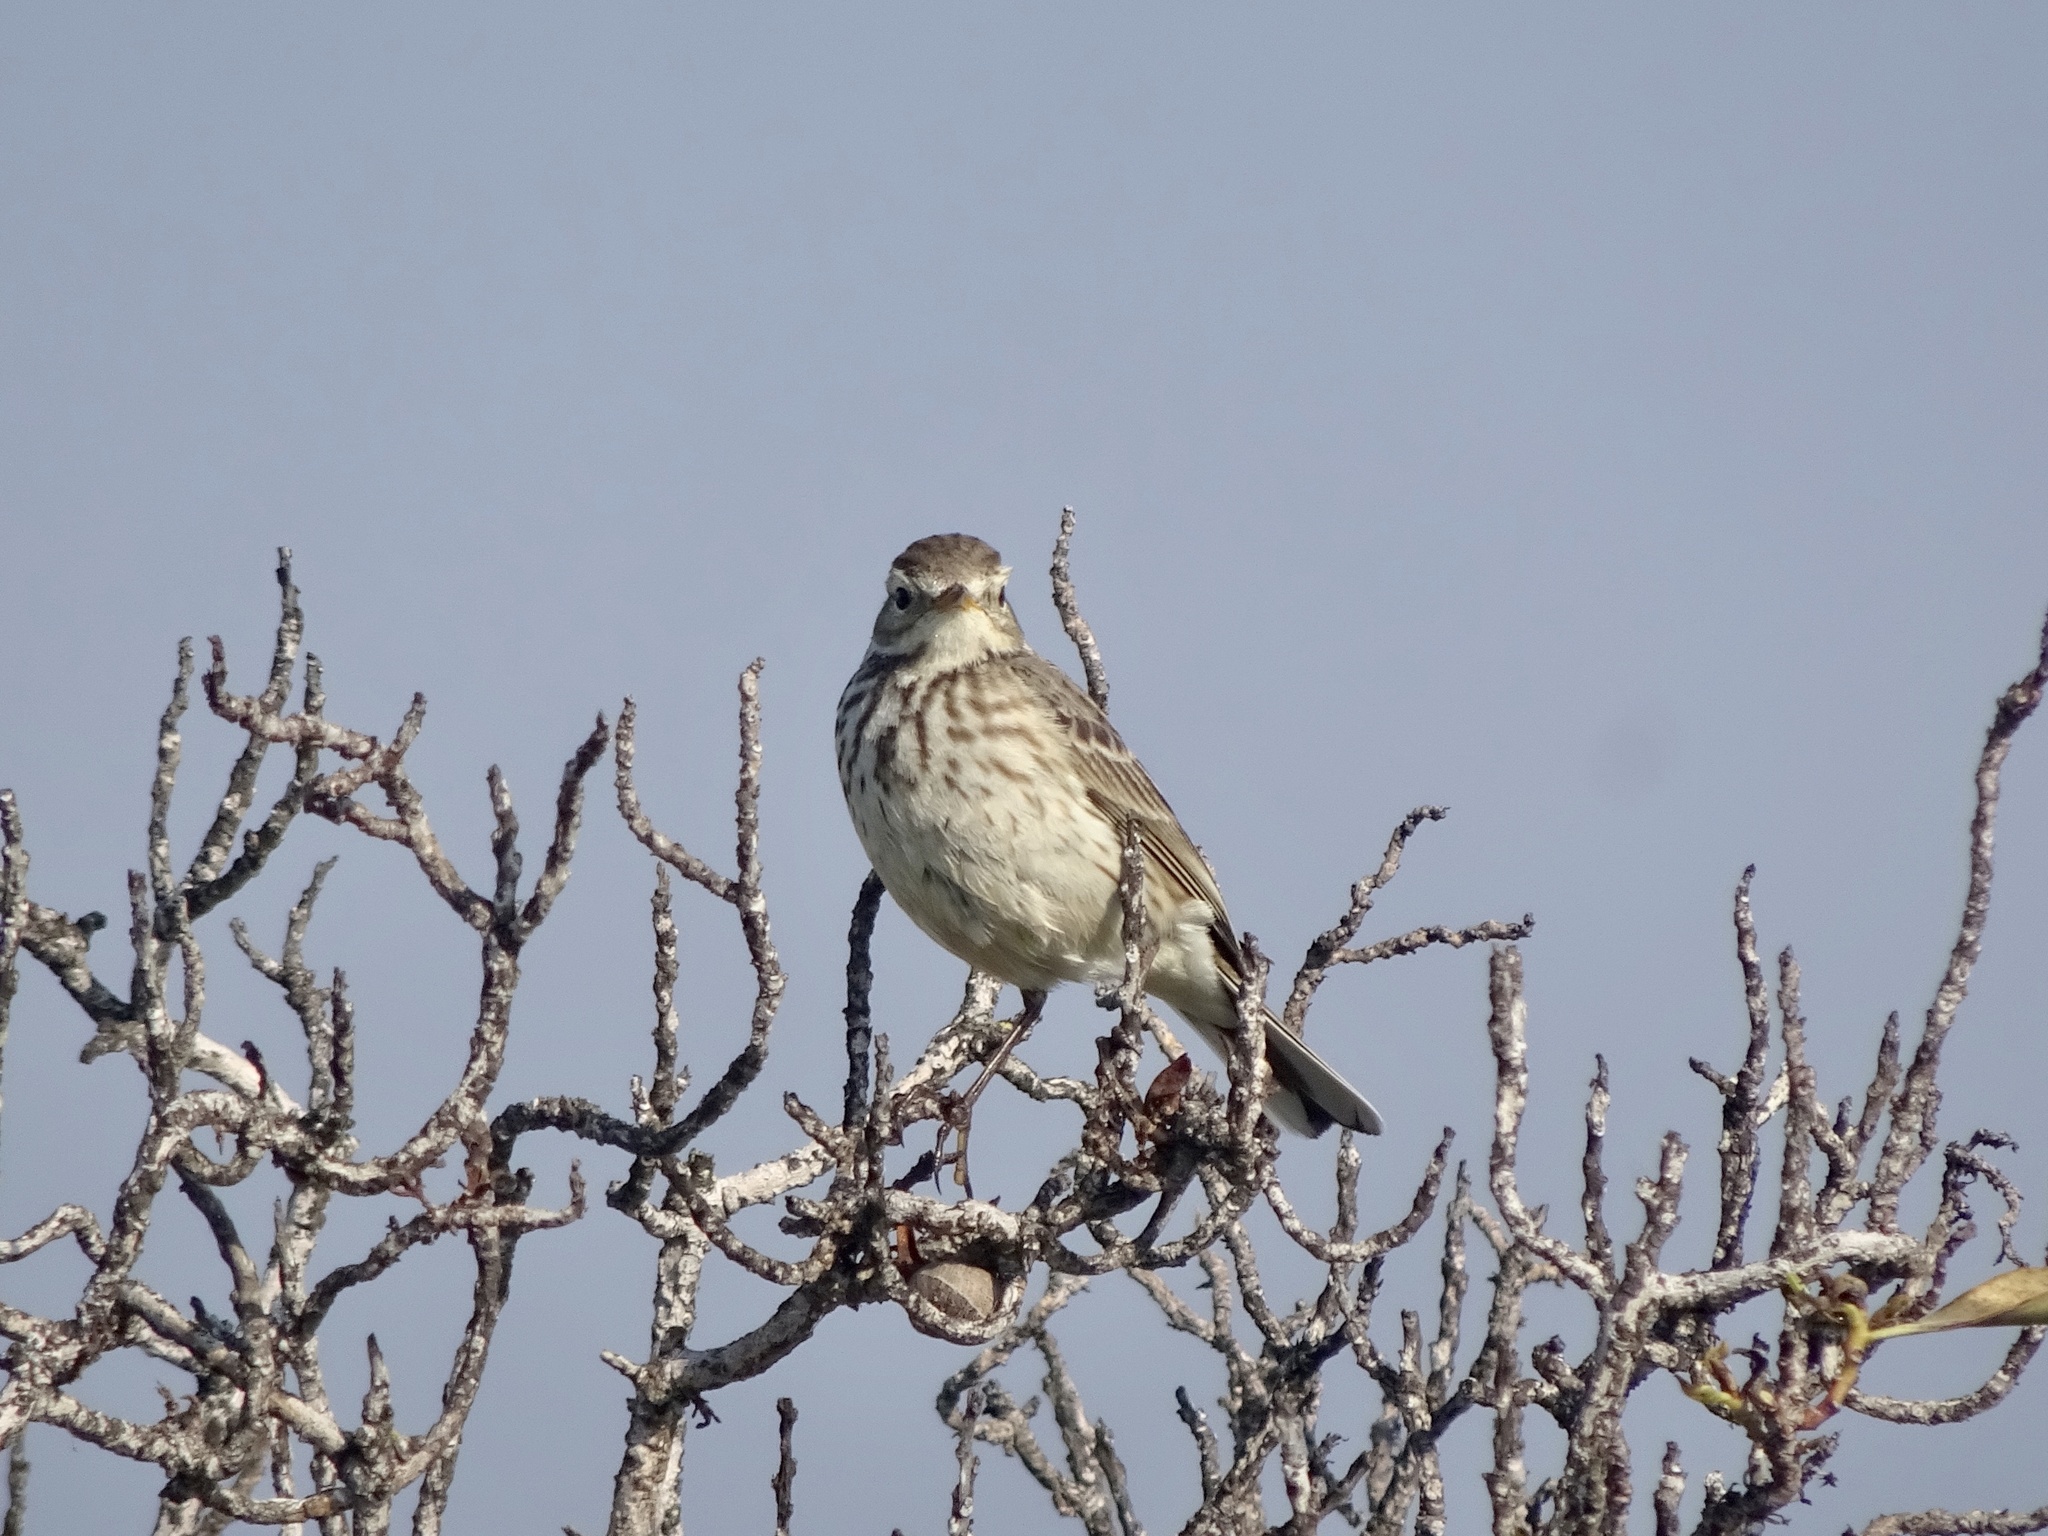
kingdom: Animalia
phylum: Chordata
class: Aves
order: Passeriformes
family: Motacillidae
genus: Anthus
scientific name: Anthus rubescens
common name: Buff-bellied pipit
